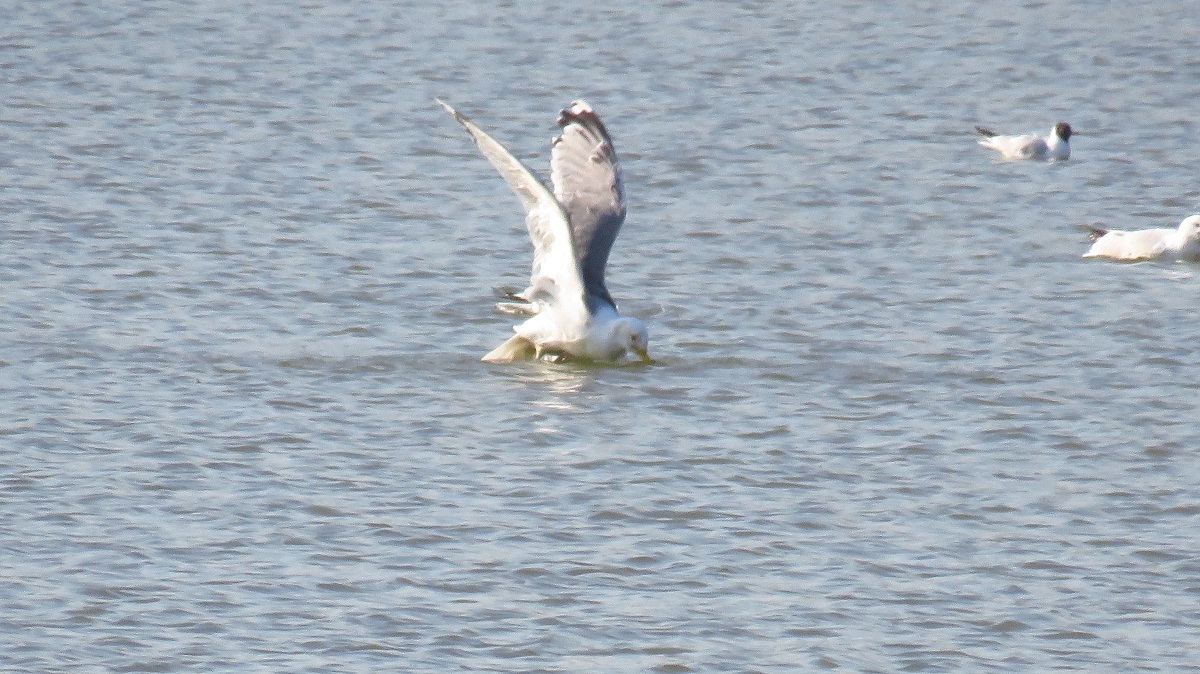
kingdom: Animalia
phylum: Chordata
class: Aves
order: Charadriiformes
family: Laridae
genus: Larus
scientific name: Larus argentatus
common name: Herring gull
